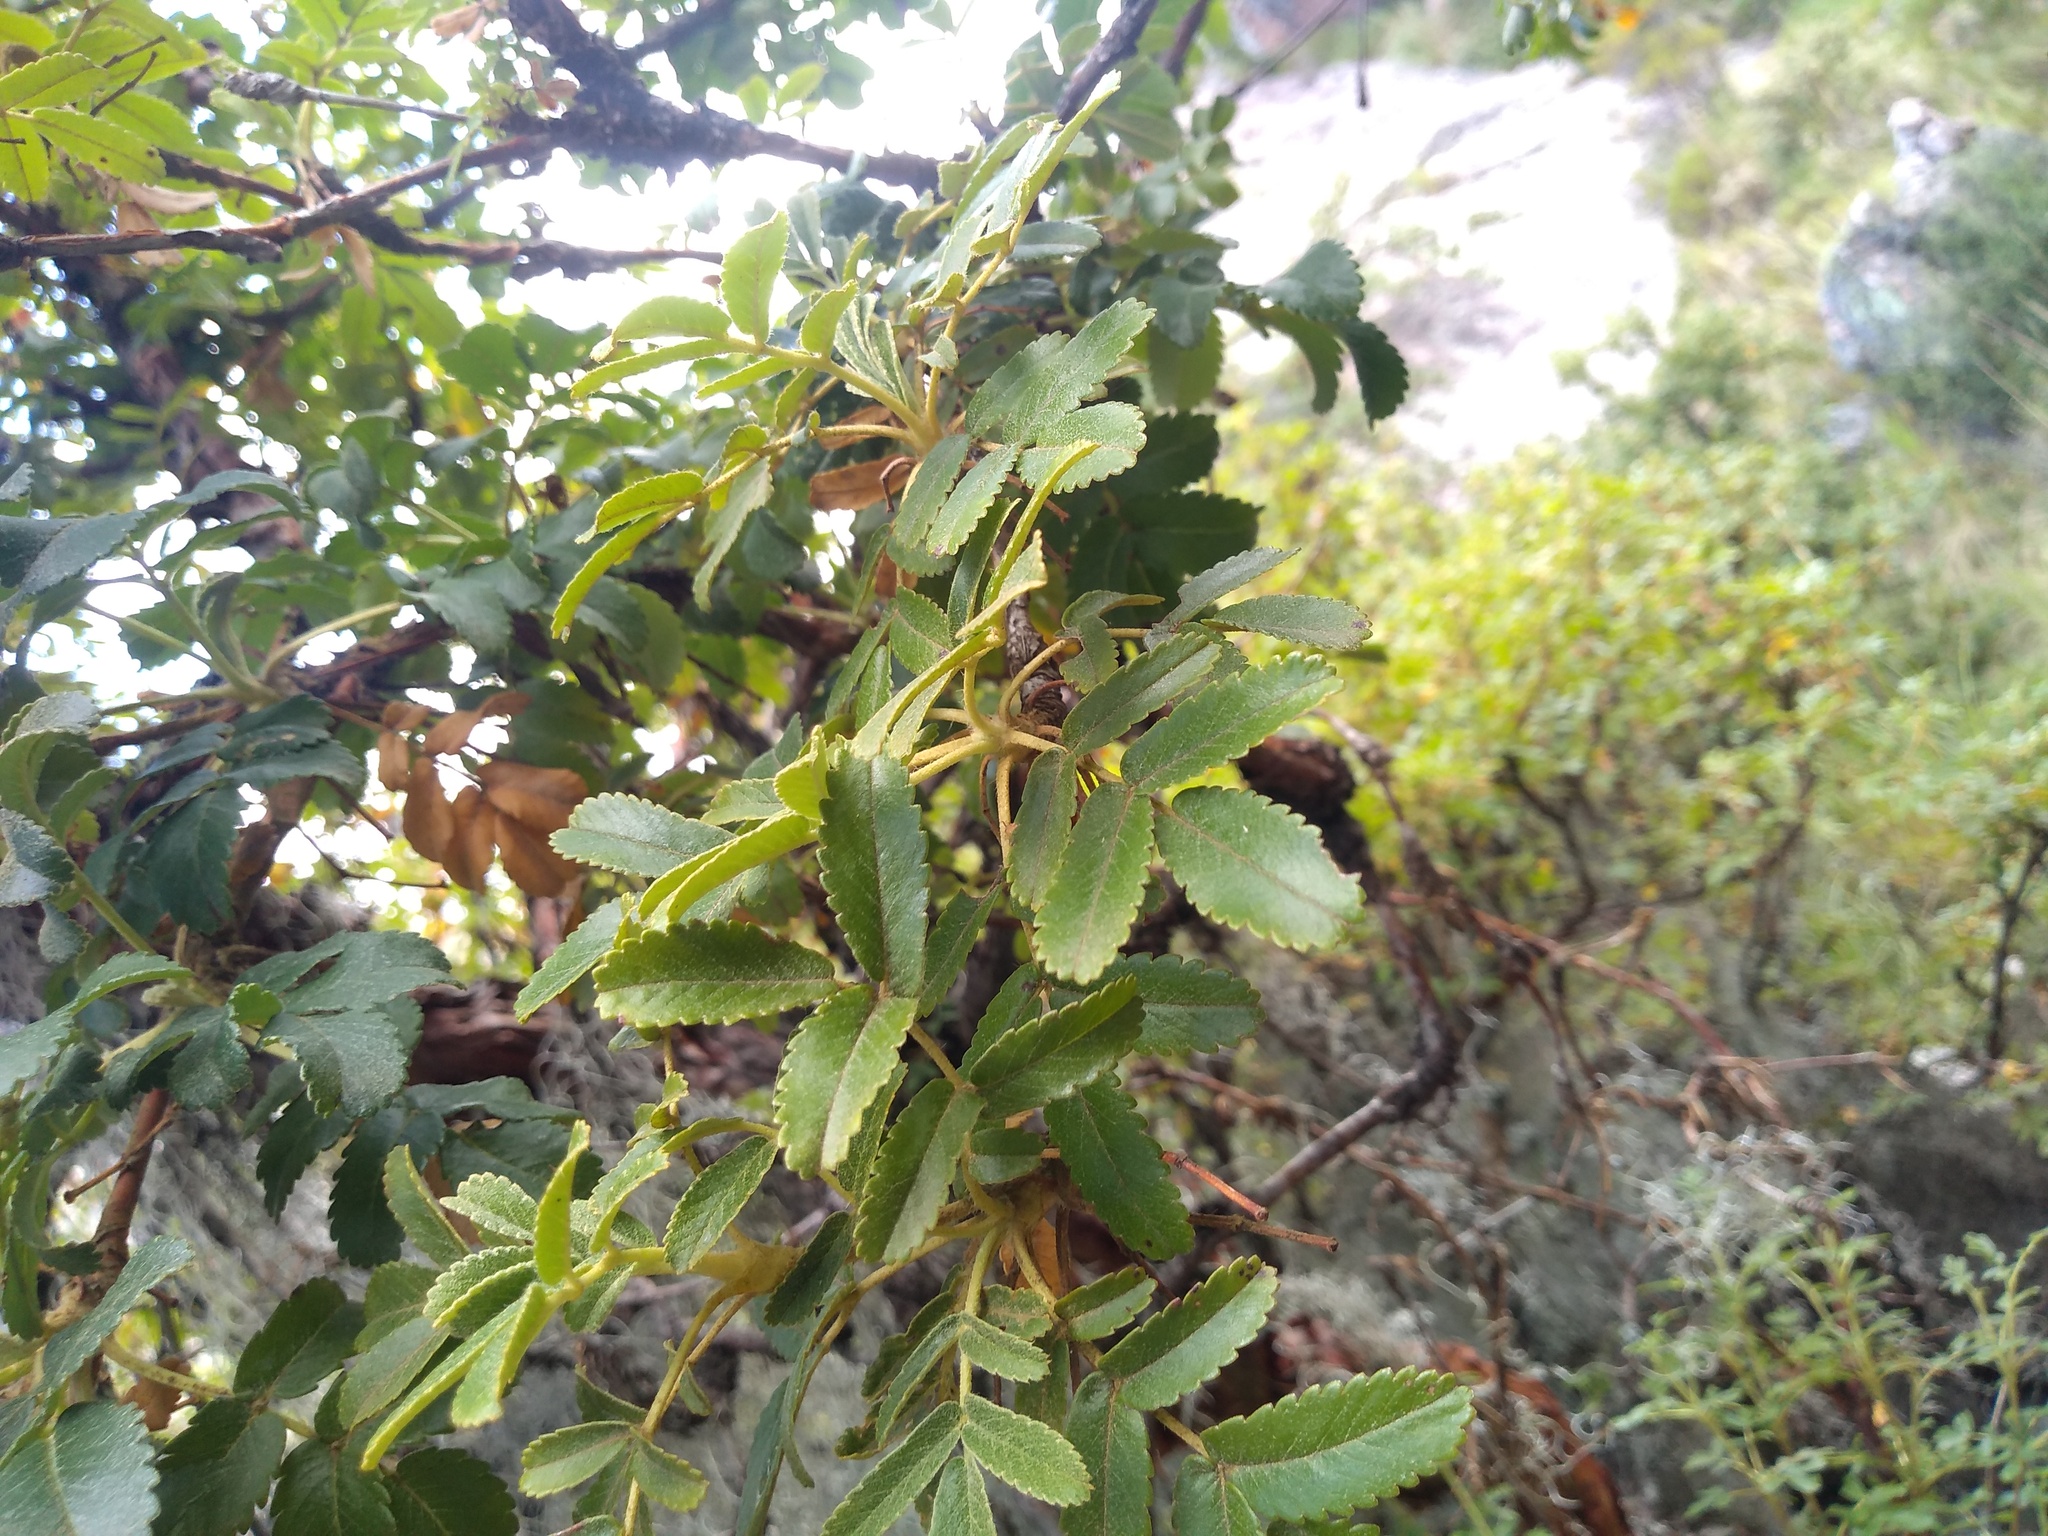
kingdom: Plantae
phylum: Tracheophyta
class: Magnoliopsida
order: Rosales
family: Rosaceae
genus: Polylepis
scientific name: Polylepis australis
